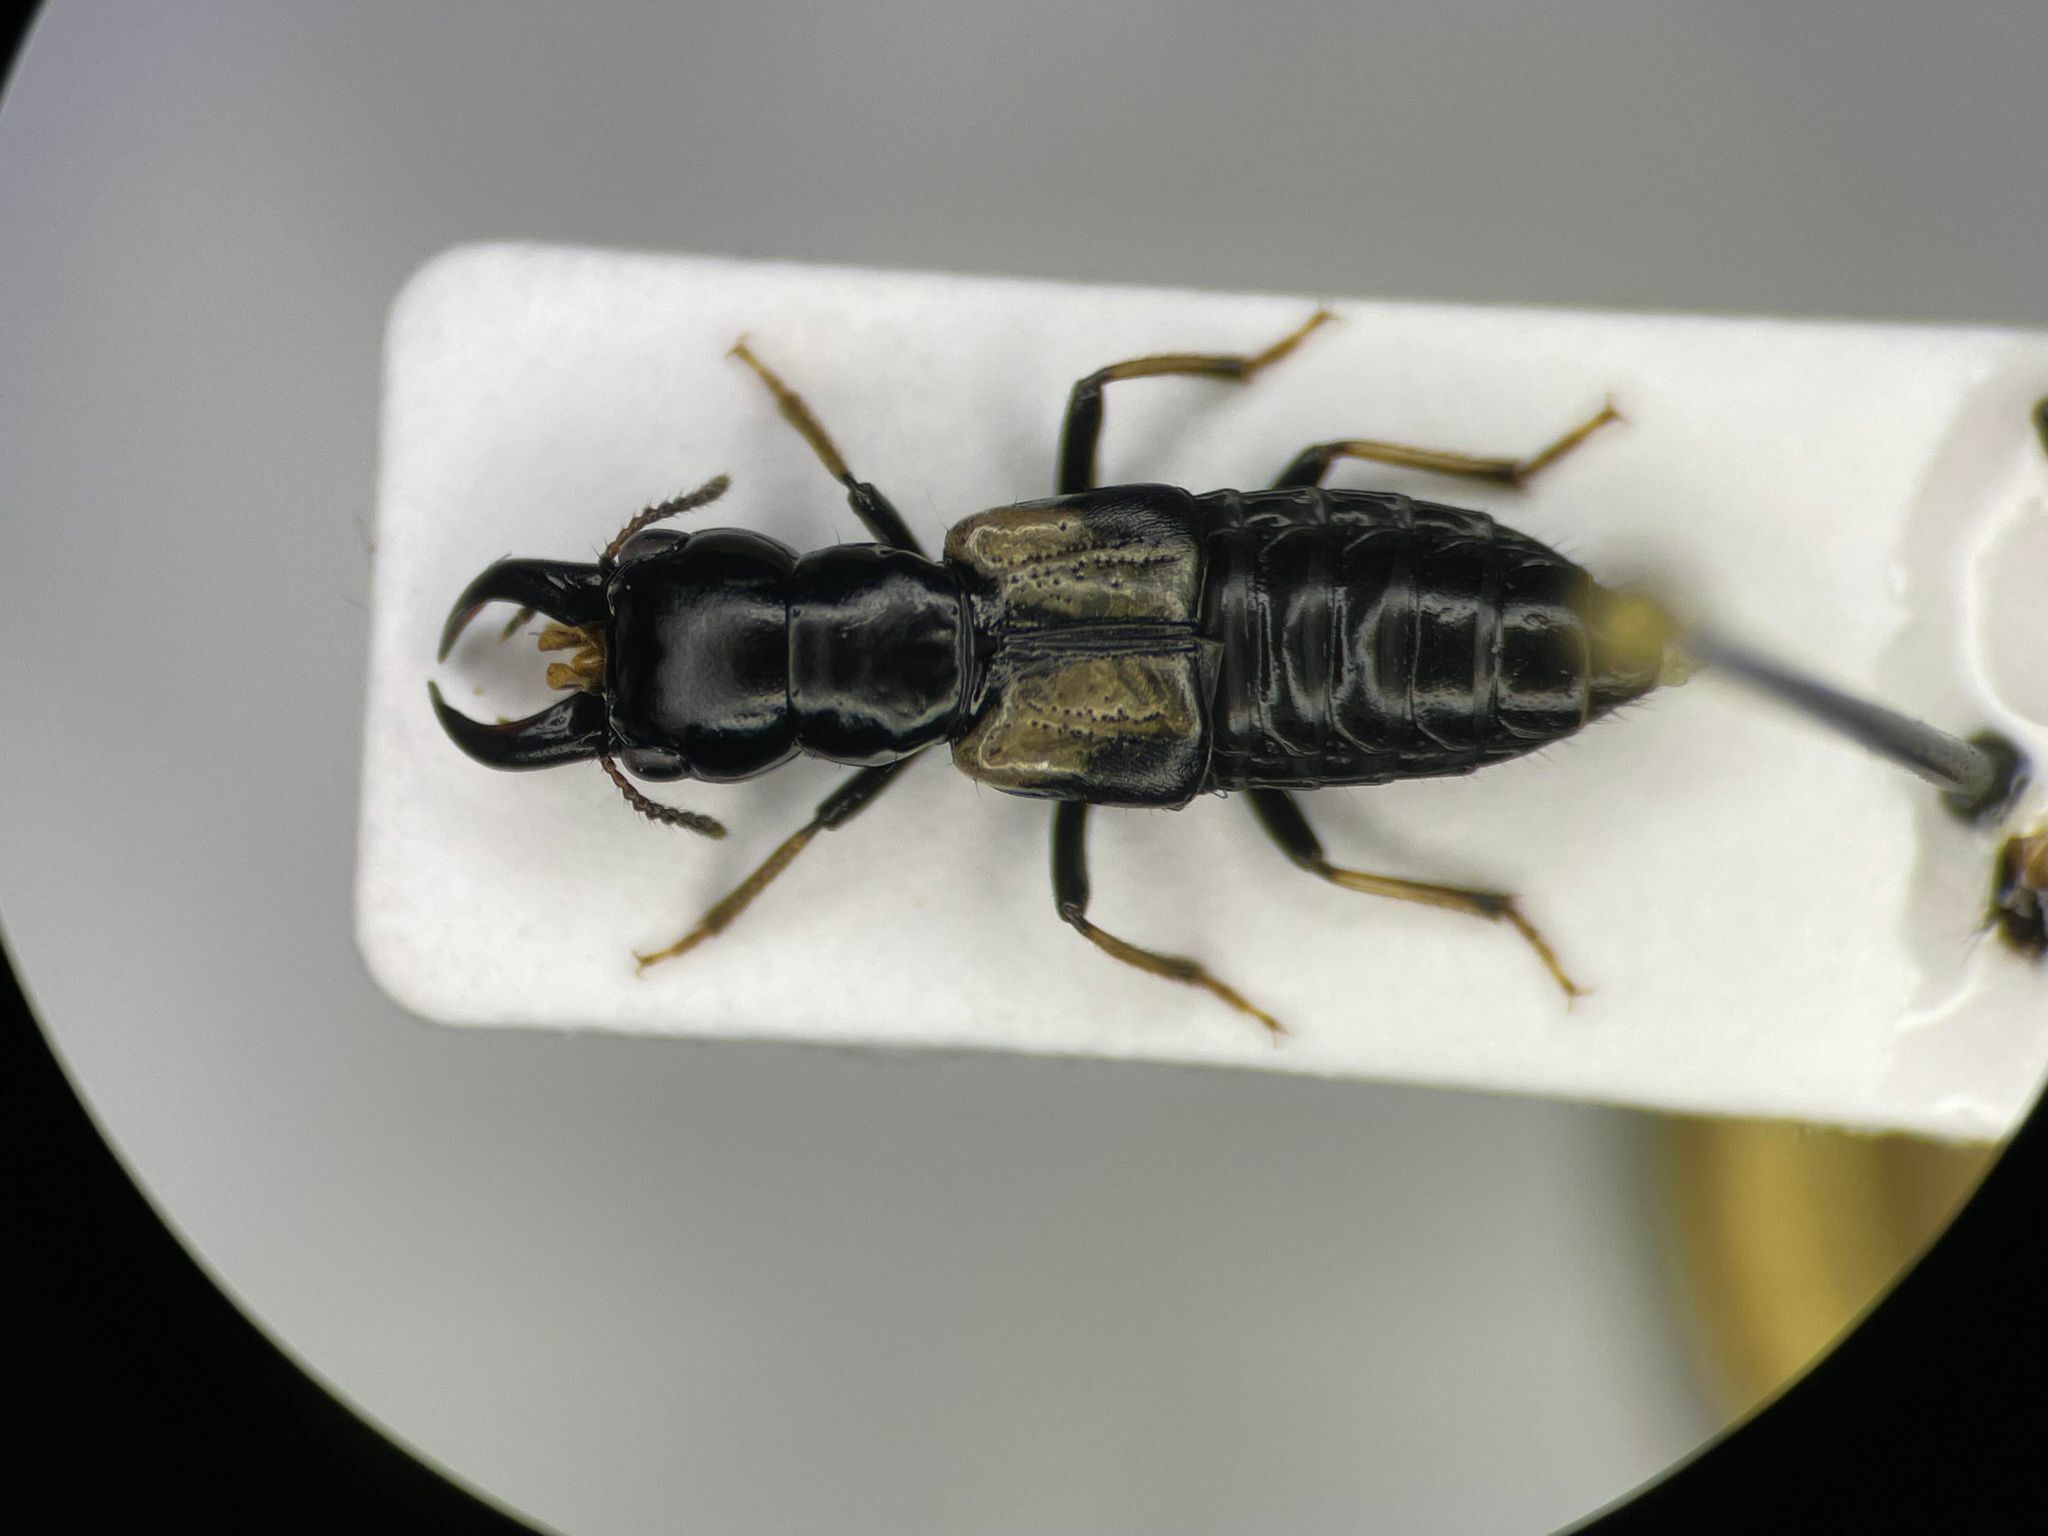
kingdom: Animalia
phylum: Arthropoda
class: Insecta
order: Coleoptera
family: Staphylinidae
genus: Oxyporus
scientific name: Oxyporus femoralis
